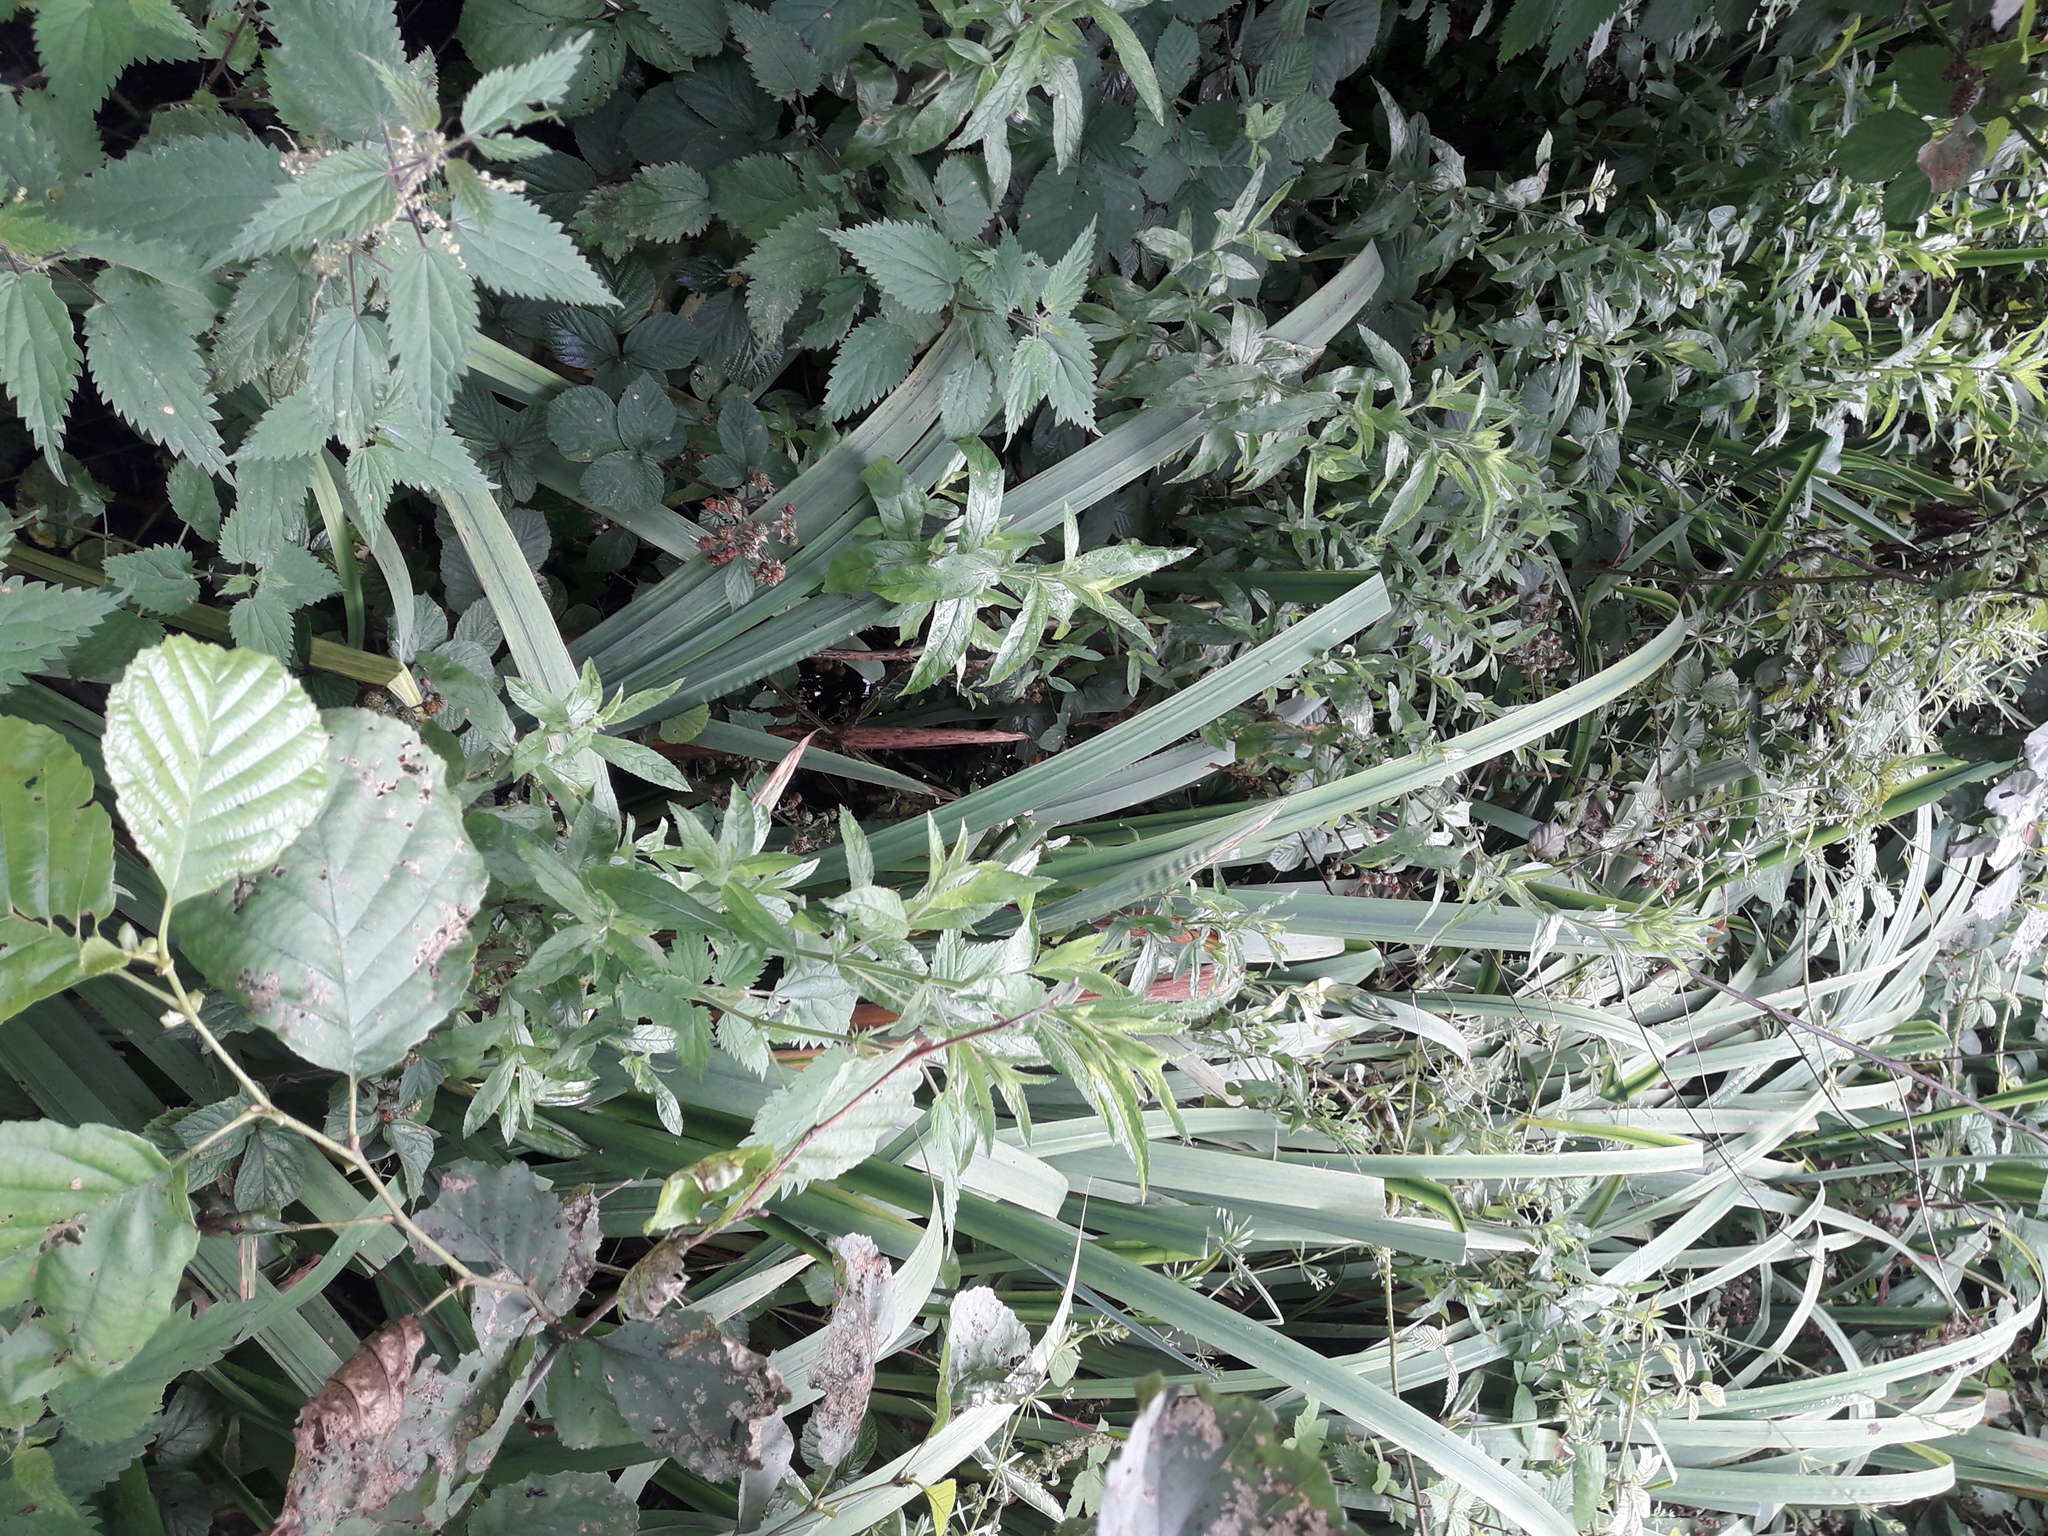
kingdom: Plantae
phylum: Tracheophyta
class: Magnoliopsida
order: Rosales
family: Urticaceae
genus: Urtica
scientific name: Urtica dioica
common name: Common nettle
